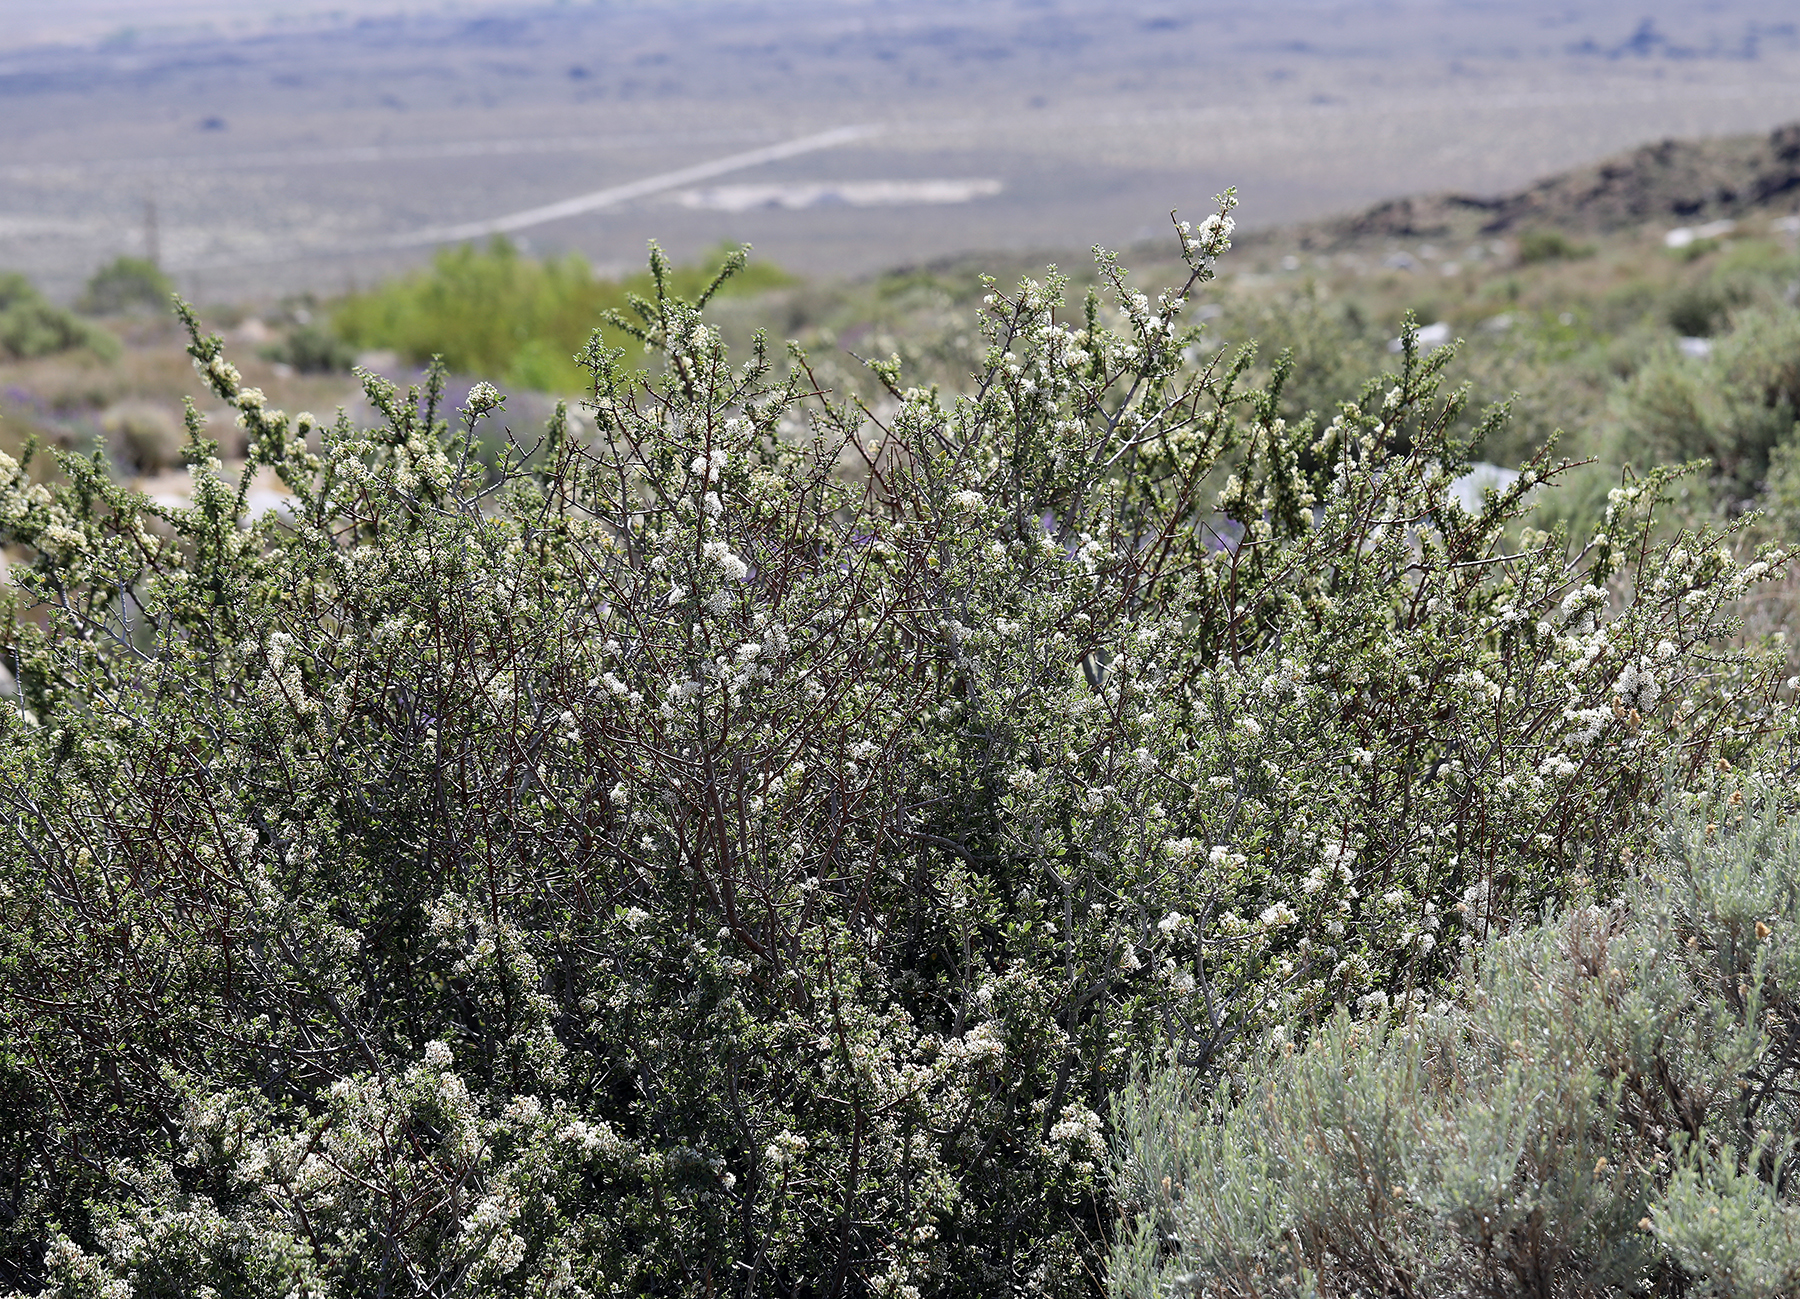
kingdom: Plantae
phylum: Tracheophyta
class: Magnoliopsida
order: Rosales
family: Rhamnaceae
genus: Ceanothus
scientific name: Ceanothus pauciflorus
